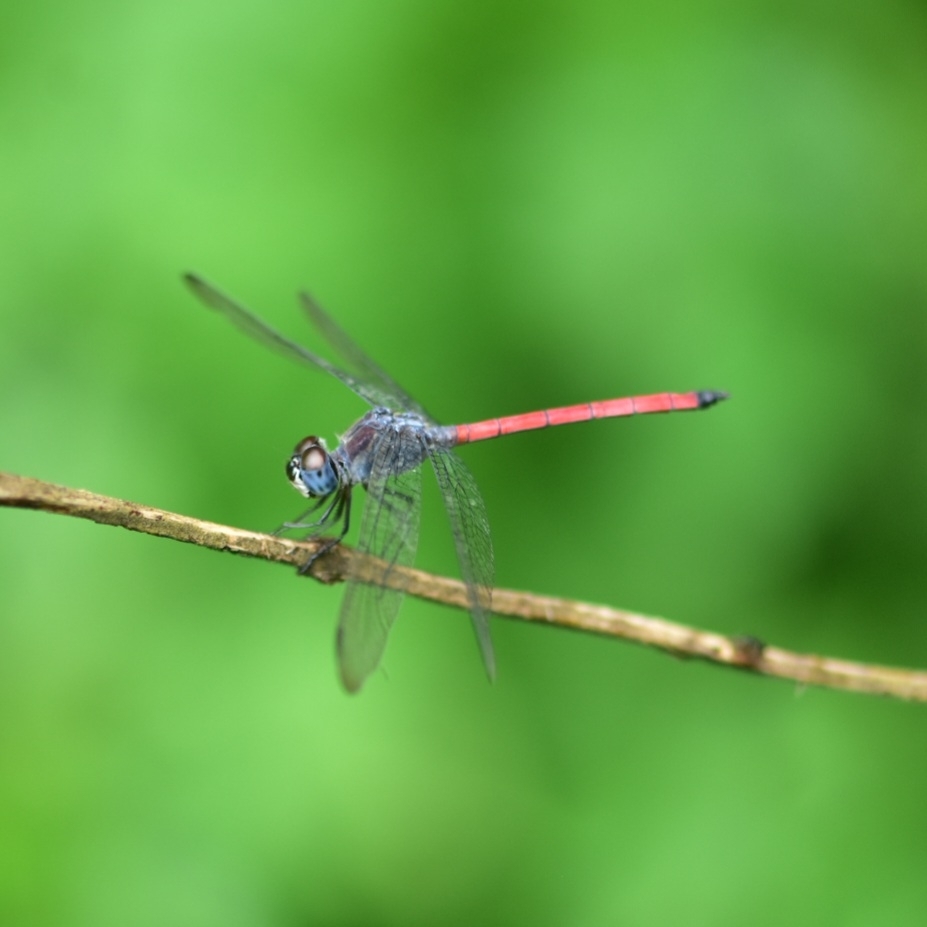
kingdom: Animalia
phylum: Arthropoda
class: Insecta
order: Odonata
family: Libellulidae
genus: Lathrecista
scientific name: Lathrecista asiatica
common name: Scarlet grenadier
